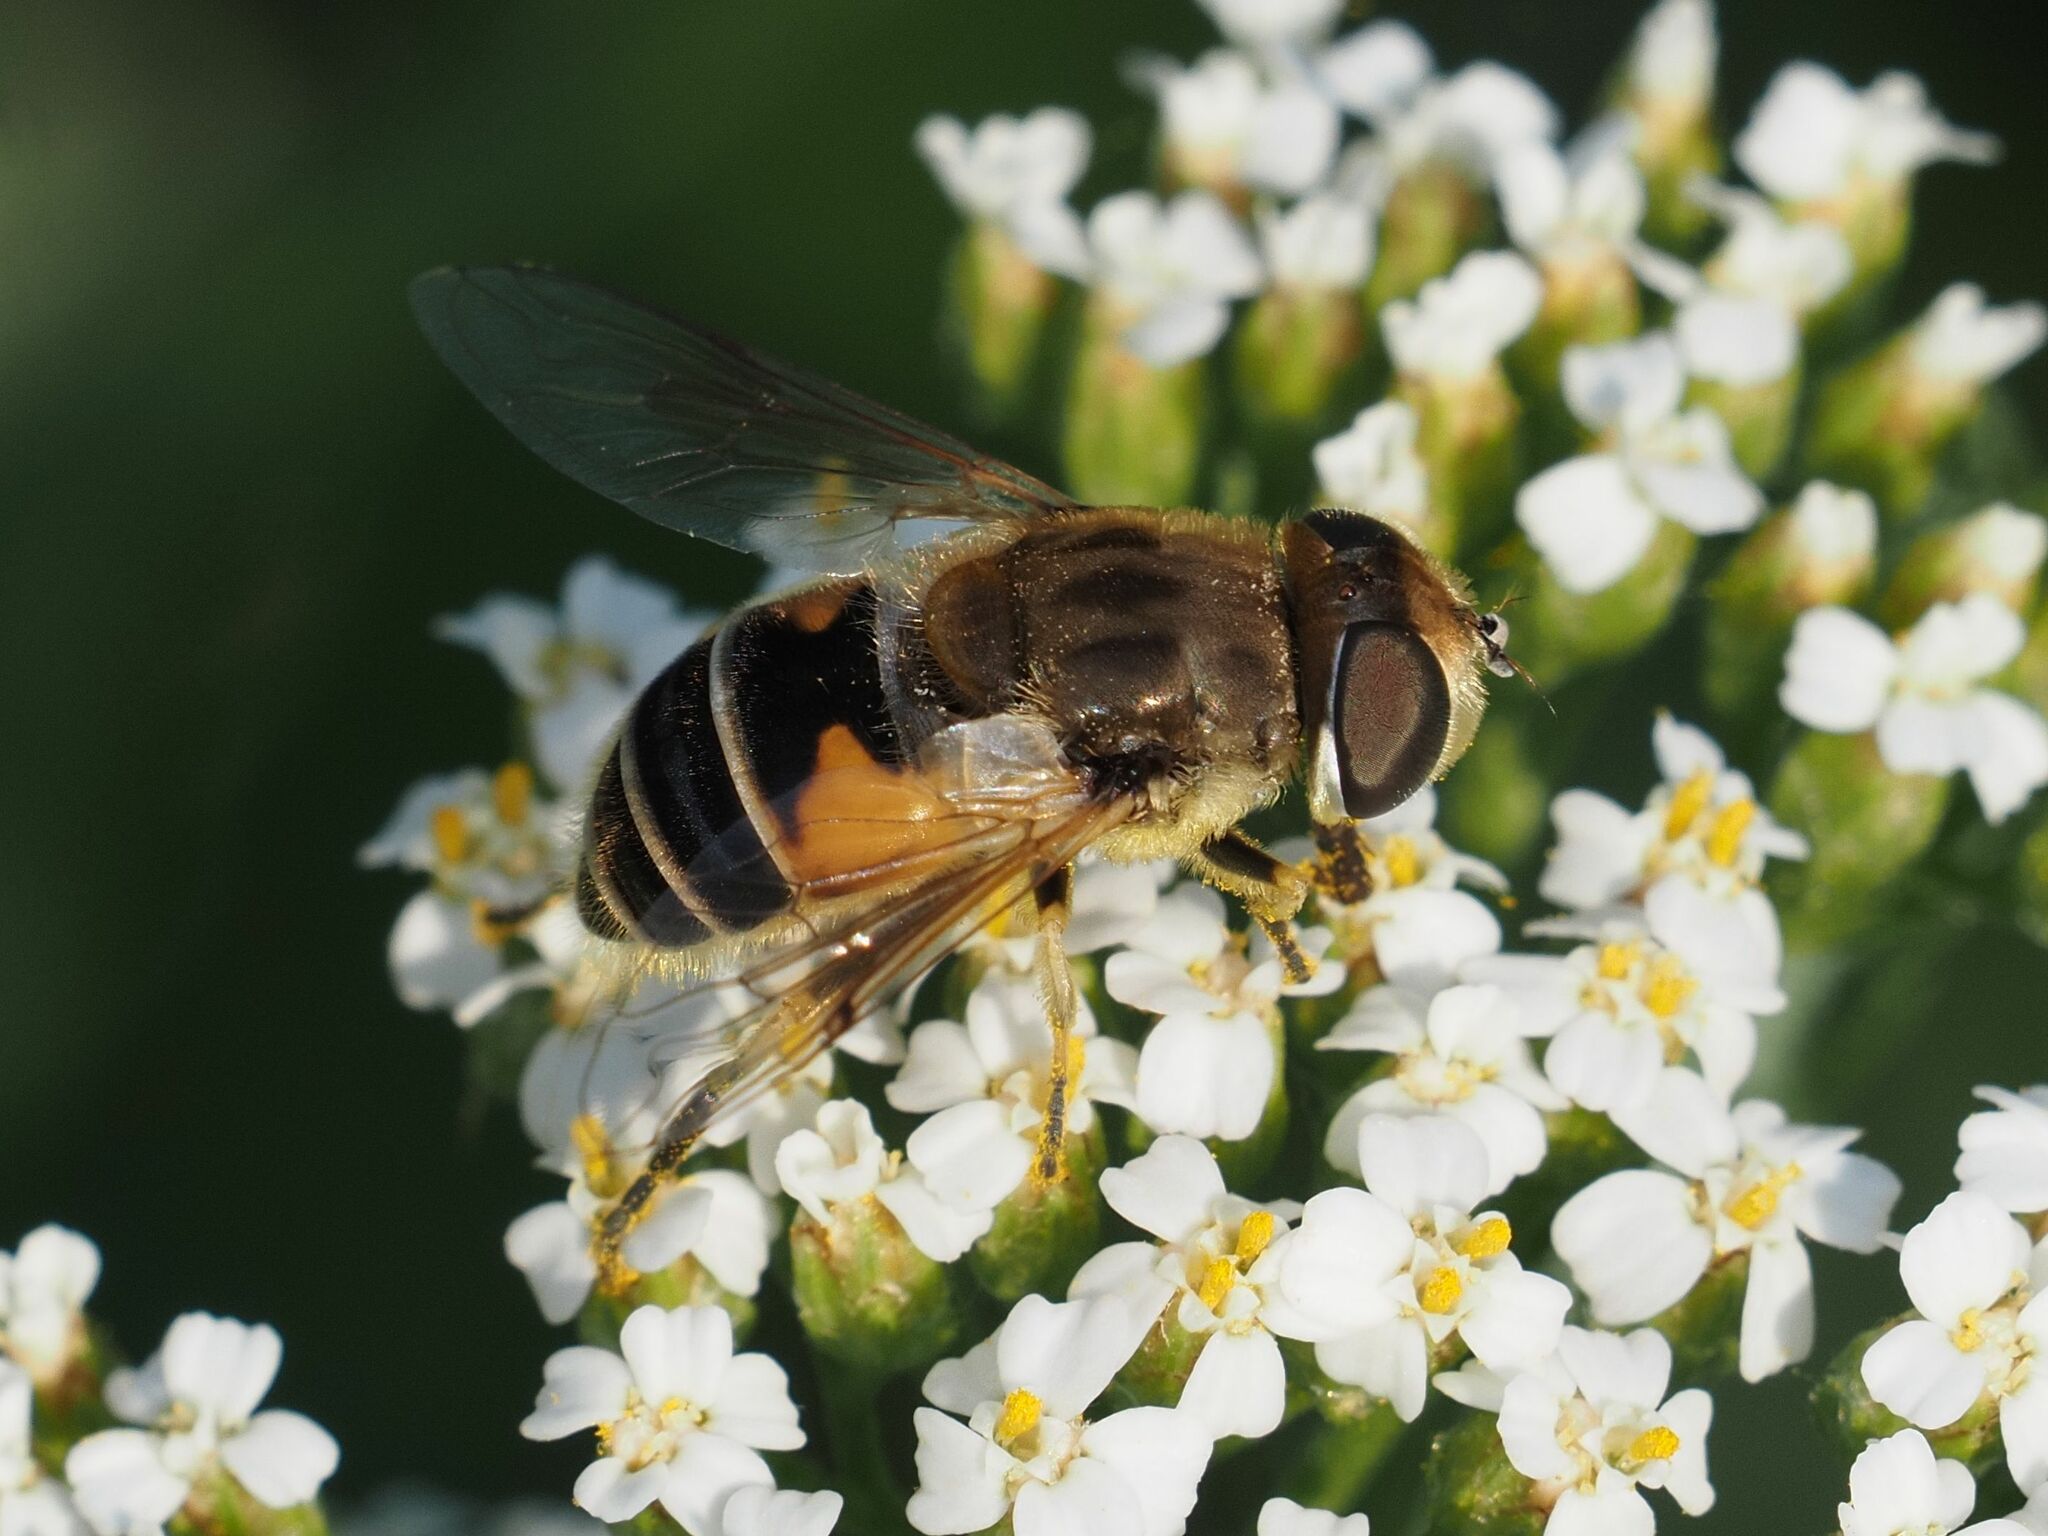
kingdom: Animalia
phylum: Arthropoda
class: Insecta
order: Diptera
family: Syrphidae
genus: Eristalis
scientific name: Eristalis arbustorum
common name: Hover fly
